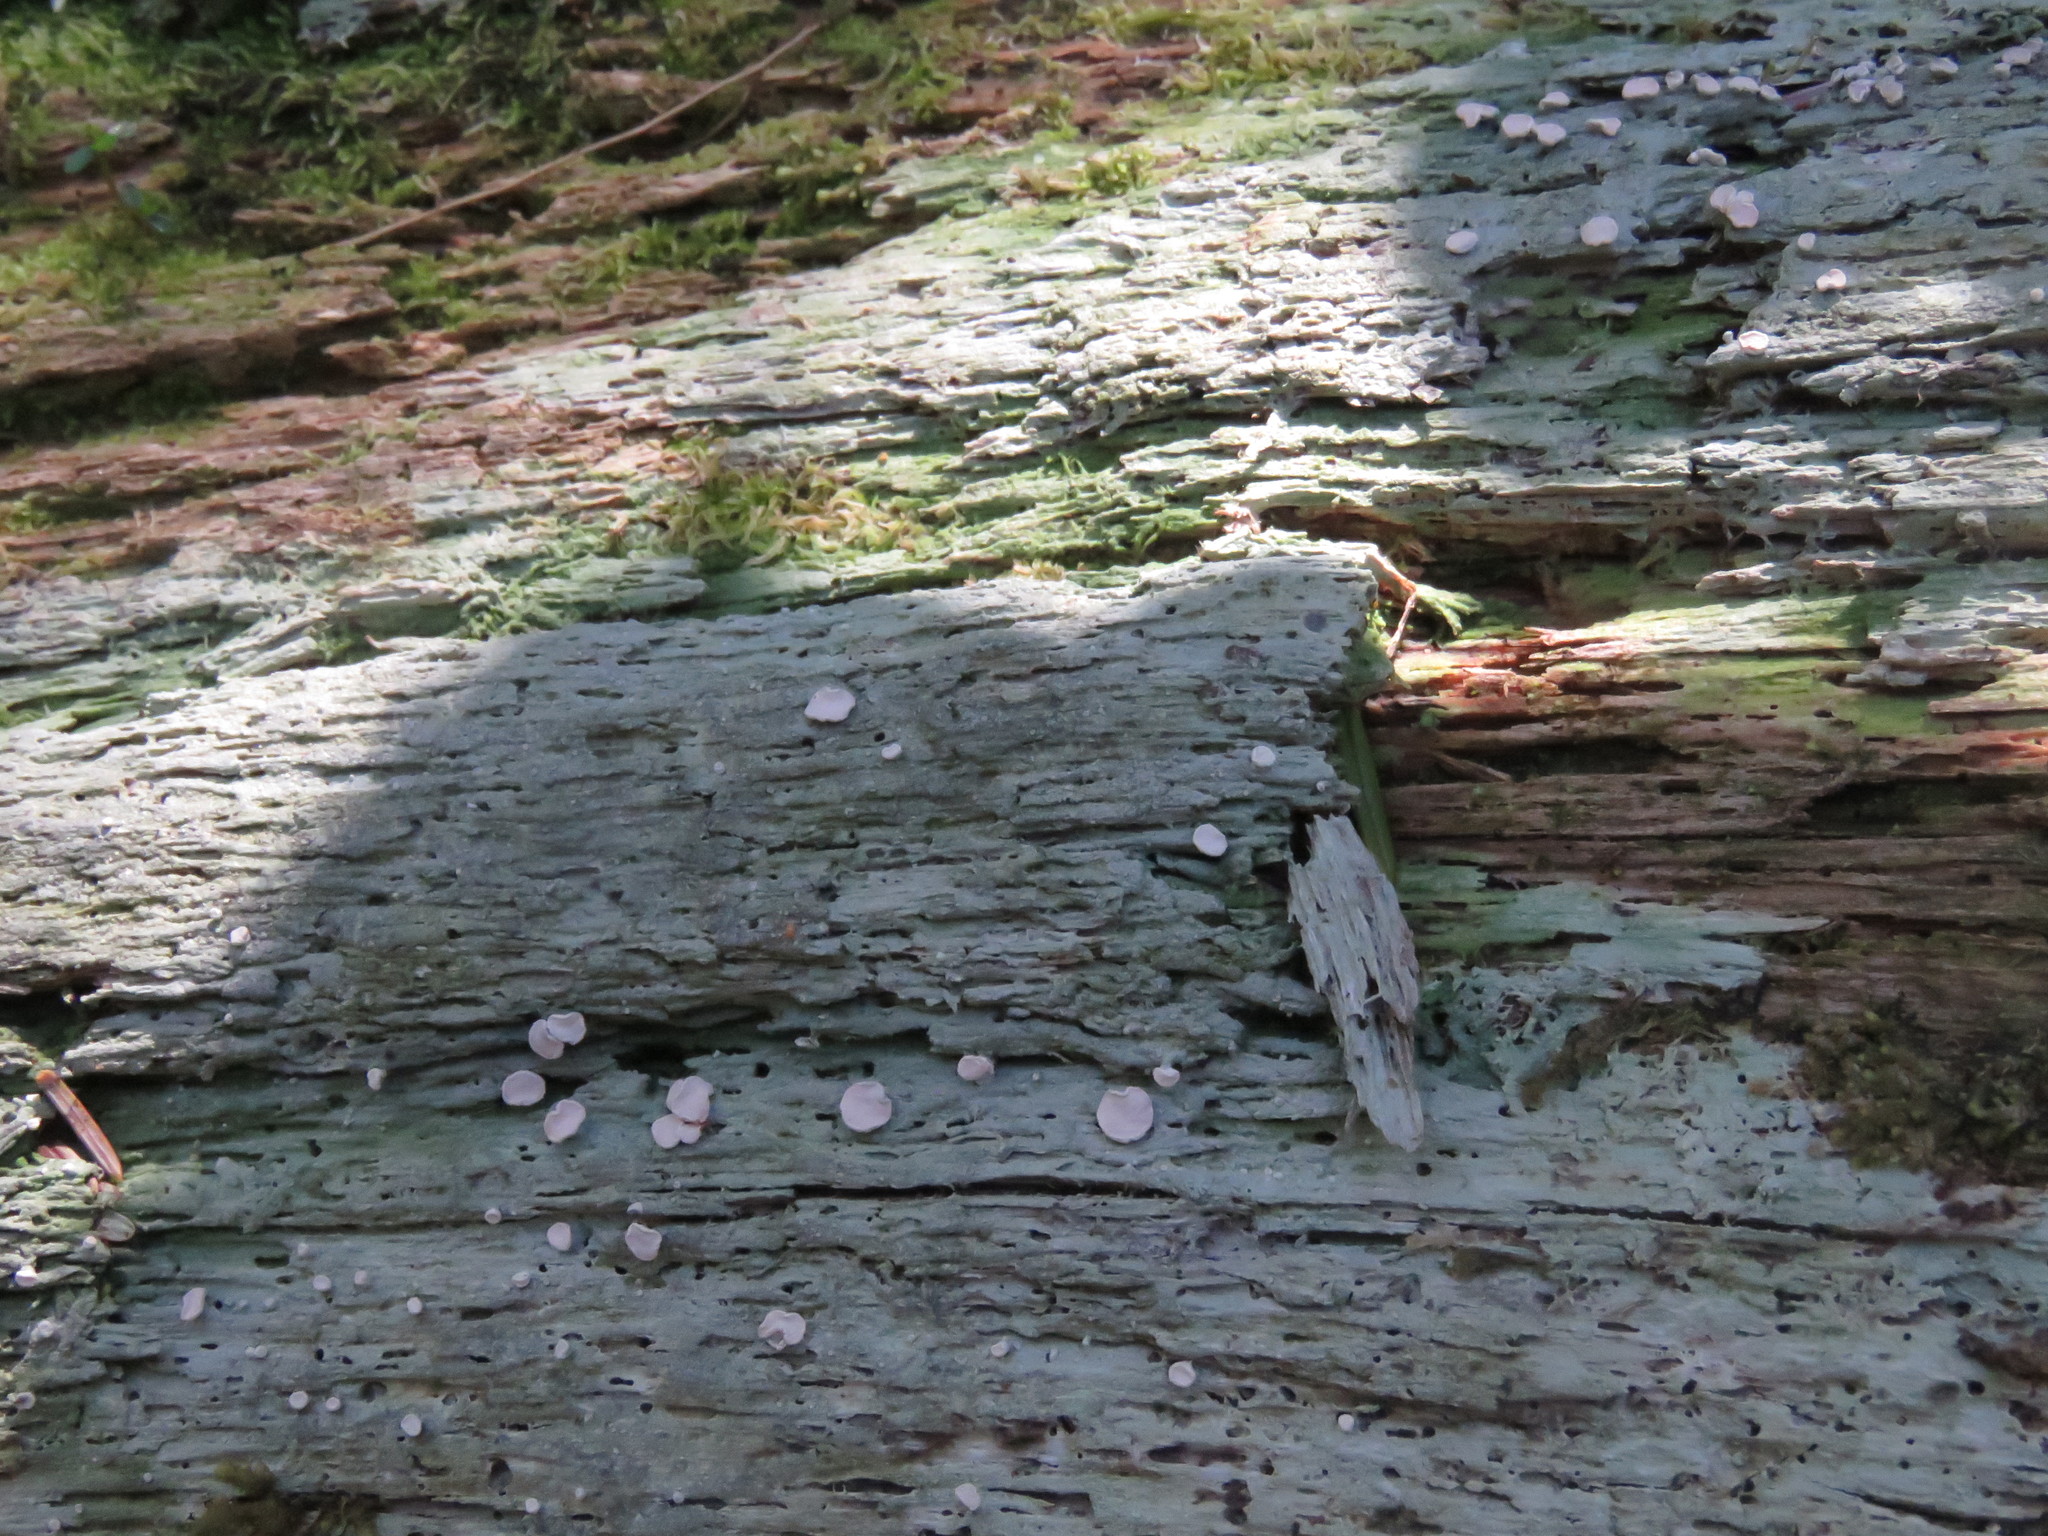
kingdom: Fungi
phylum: Ascomycota
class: Lecanoromycetes
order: Pertusariales
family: Icmadophilaceae
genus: Icmadophila
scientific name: Icmadophila ericetorum
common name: Candy lichen
